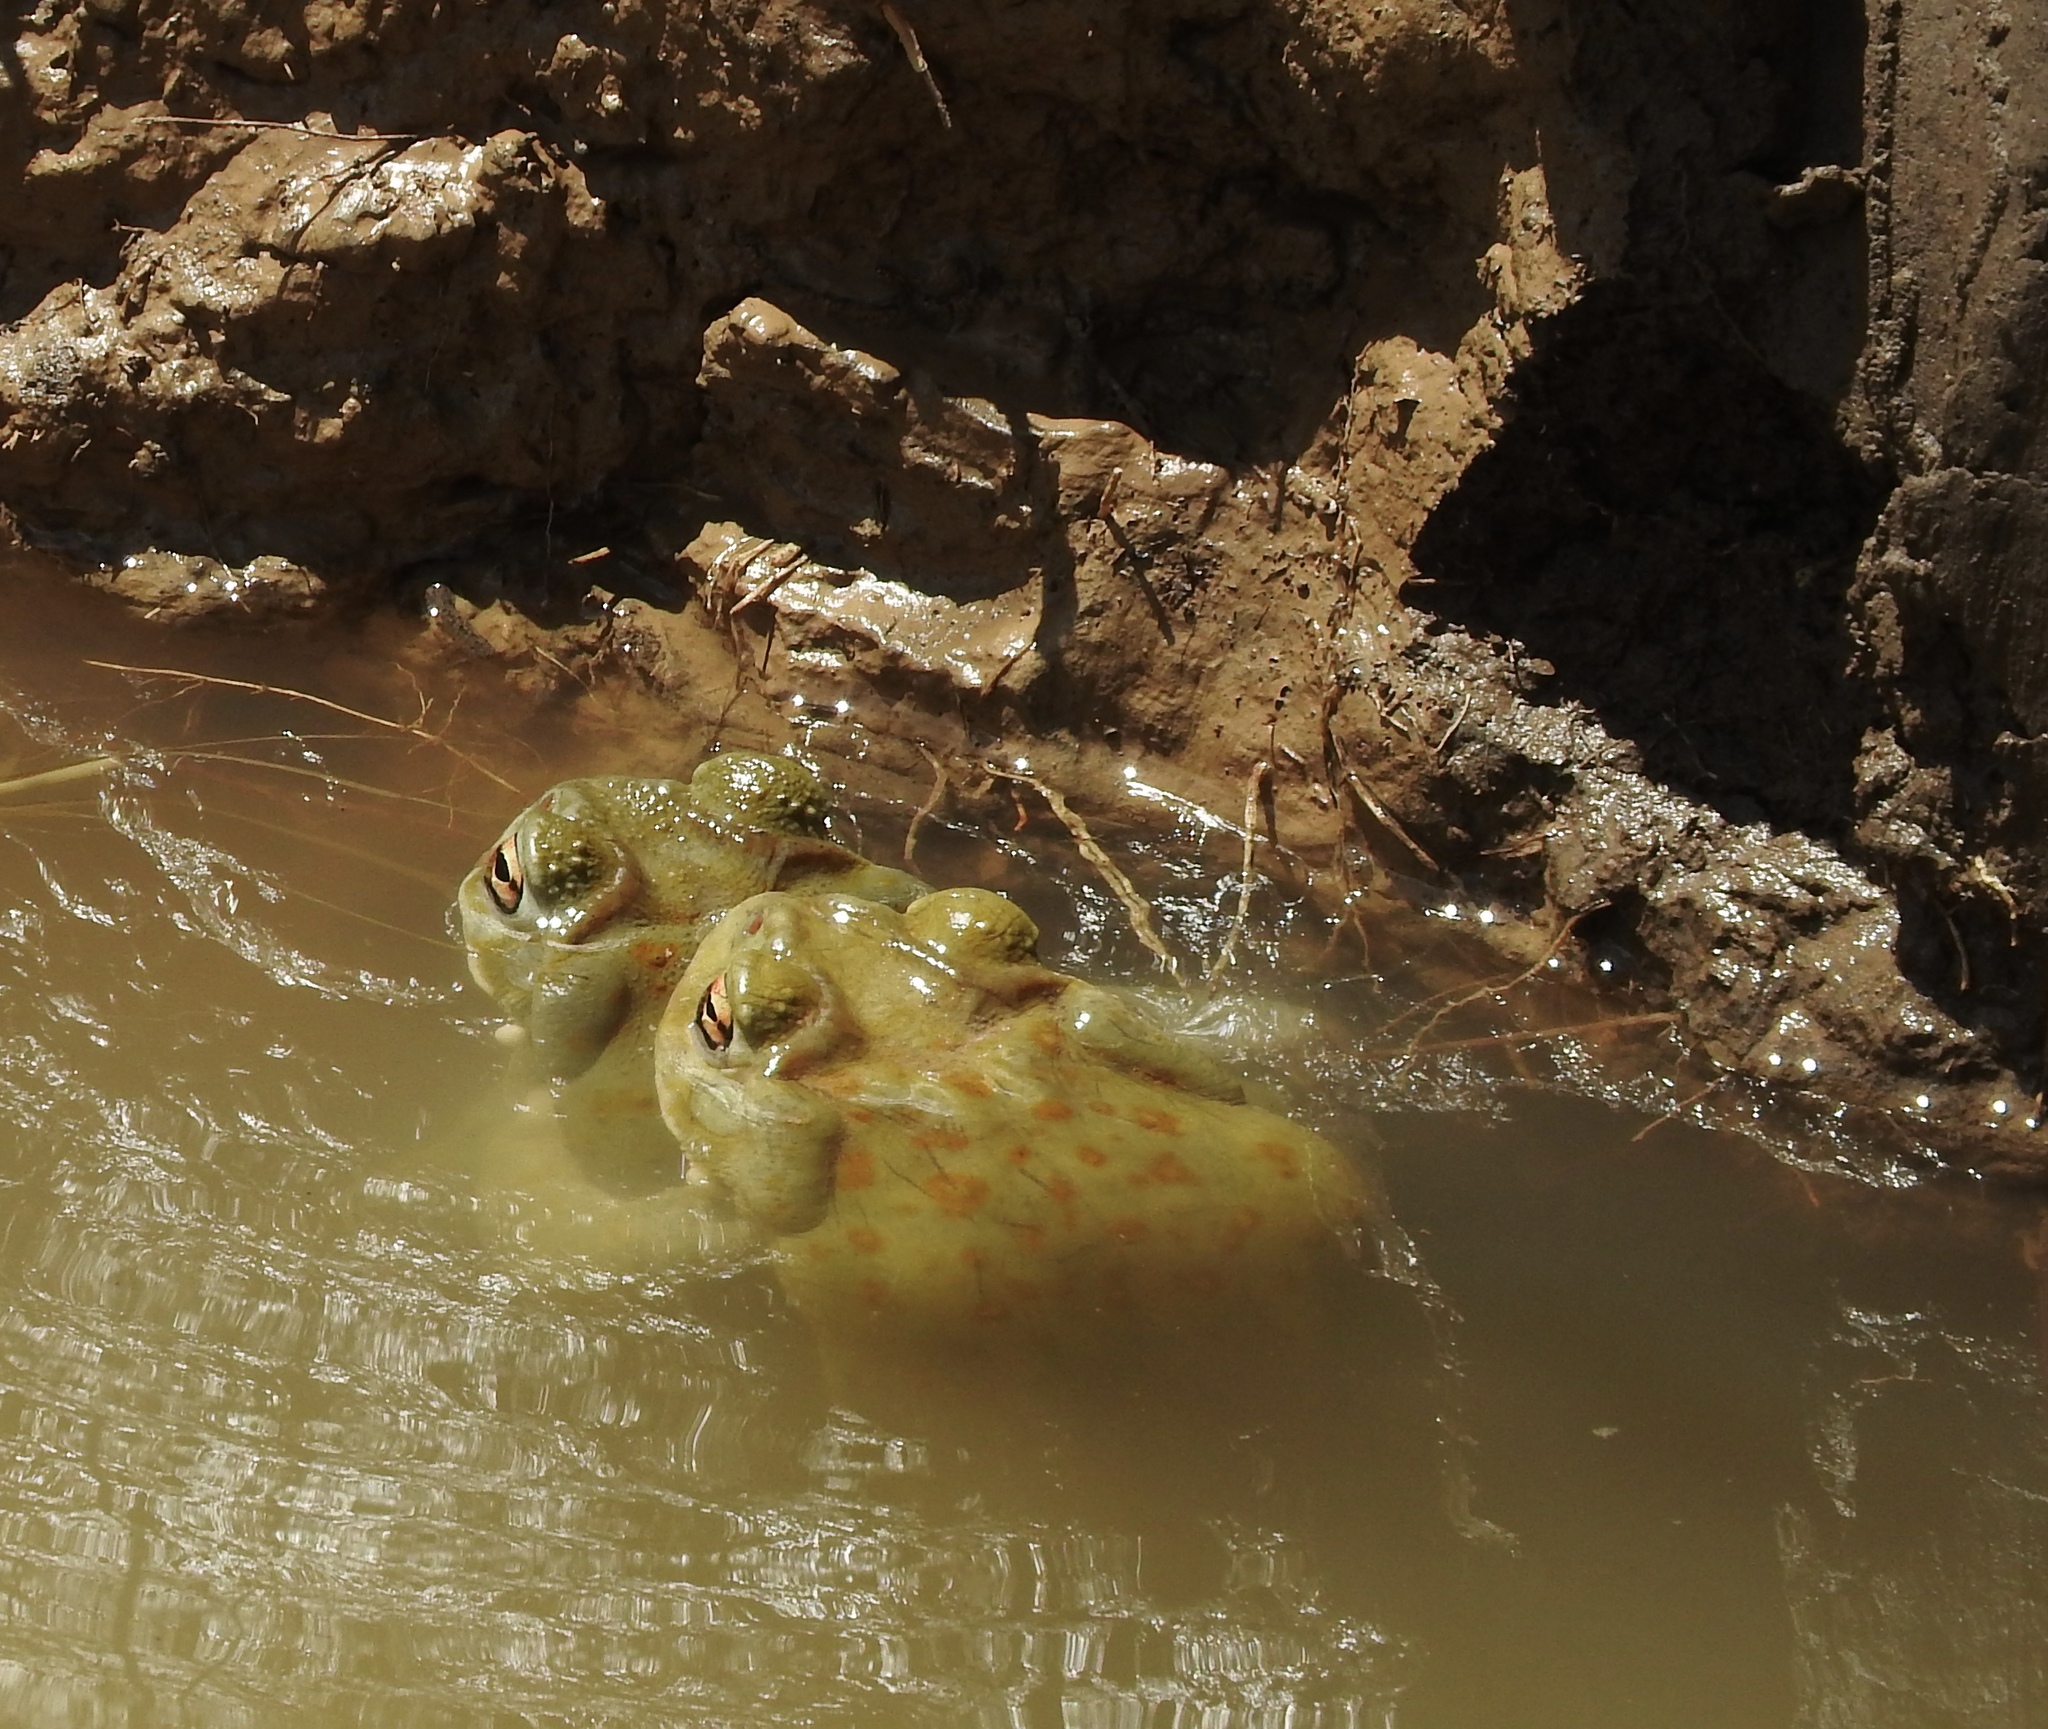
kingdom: Animalia
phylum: Chordata
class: Amphibia
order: Anura
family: Bufonidae
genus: Incilius
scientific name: Incilius alvarius
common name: Sonoran desert toad
